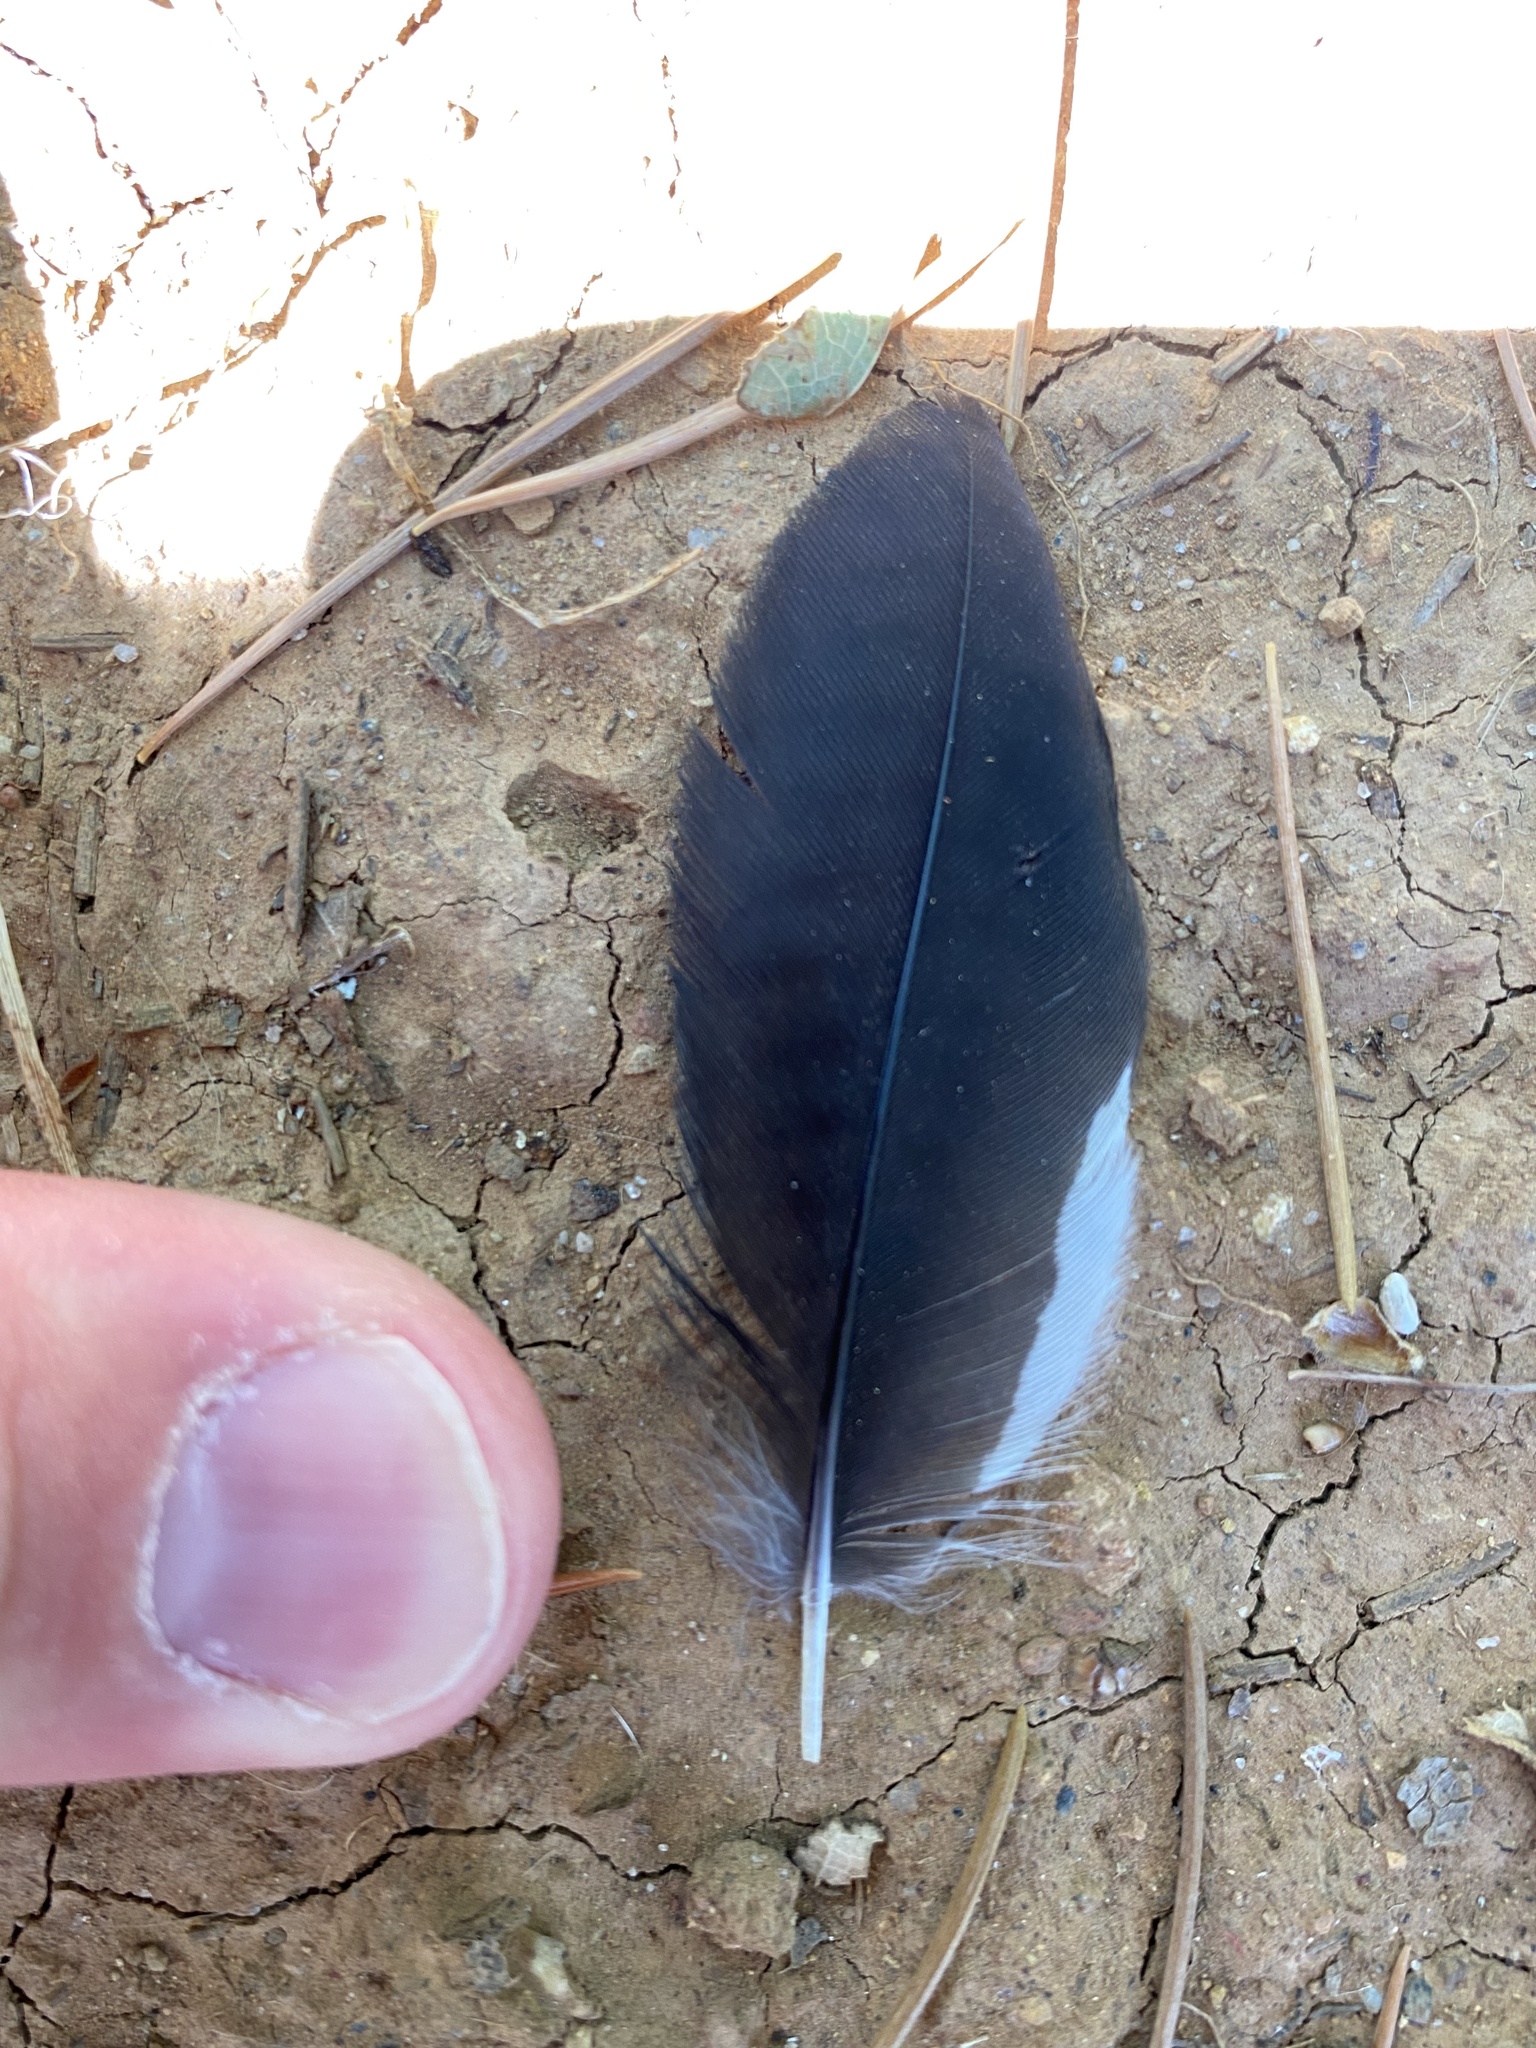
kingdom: Animalia
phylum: Chordata
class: Aves
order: Piciformes
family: Picidae
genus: Melanerpes
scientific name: Melanerpes formicivorus
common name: Acorn woodpecker
